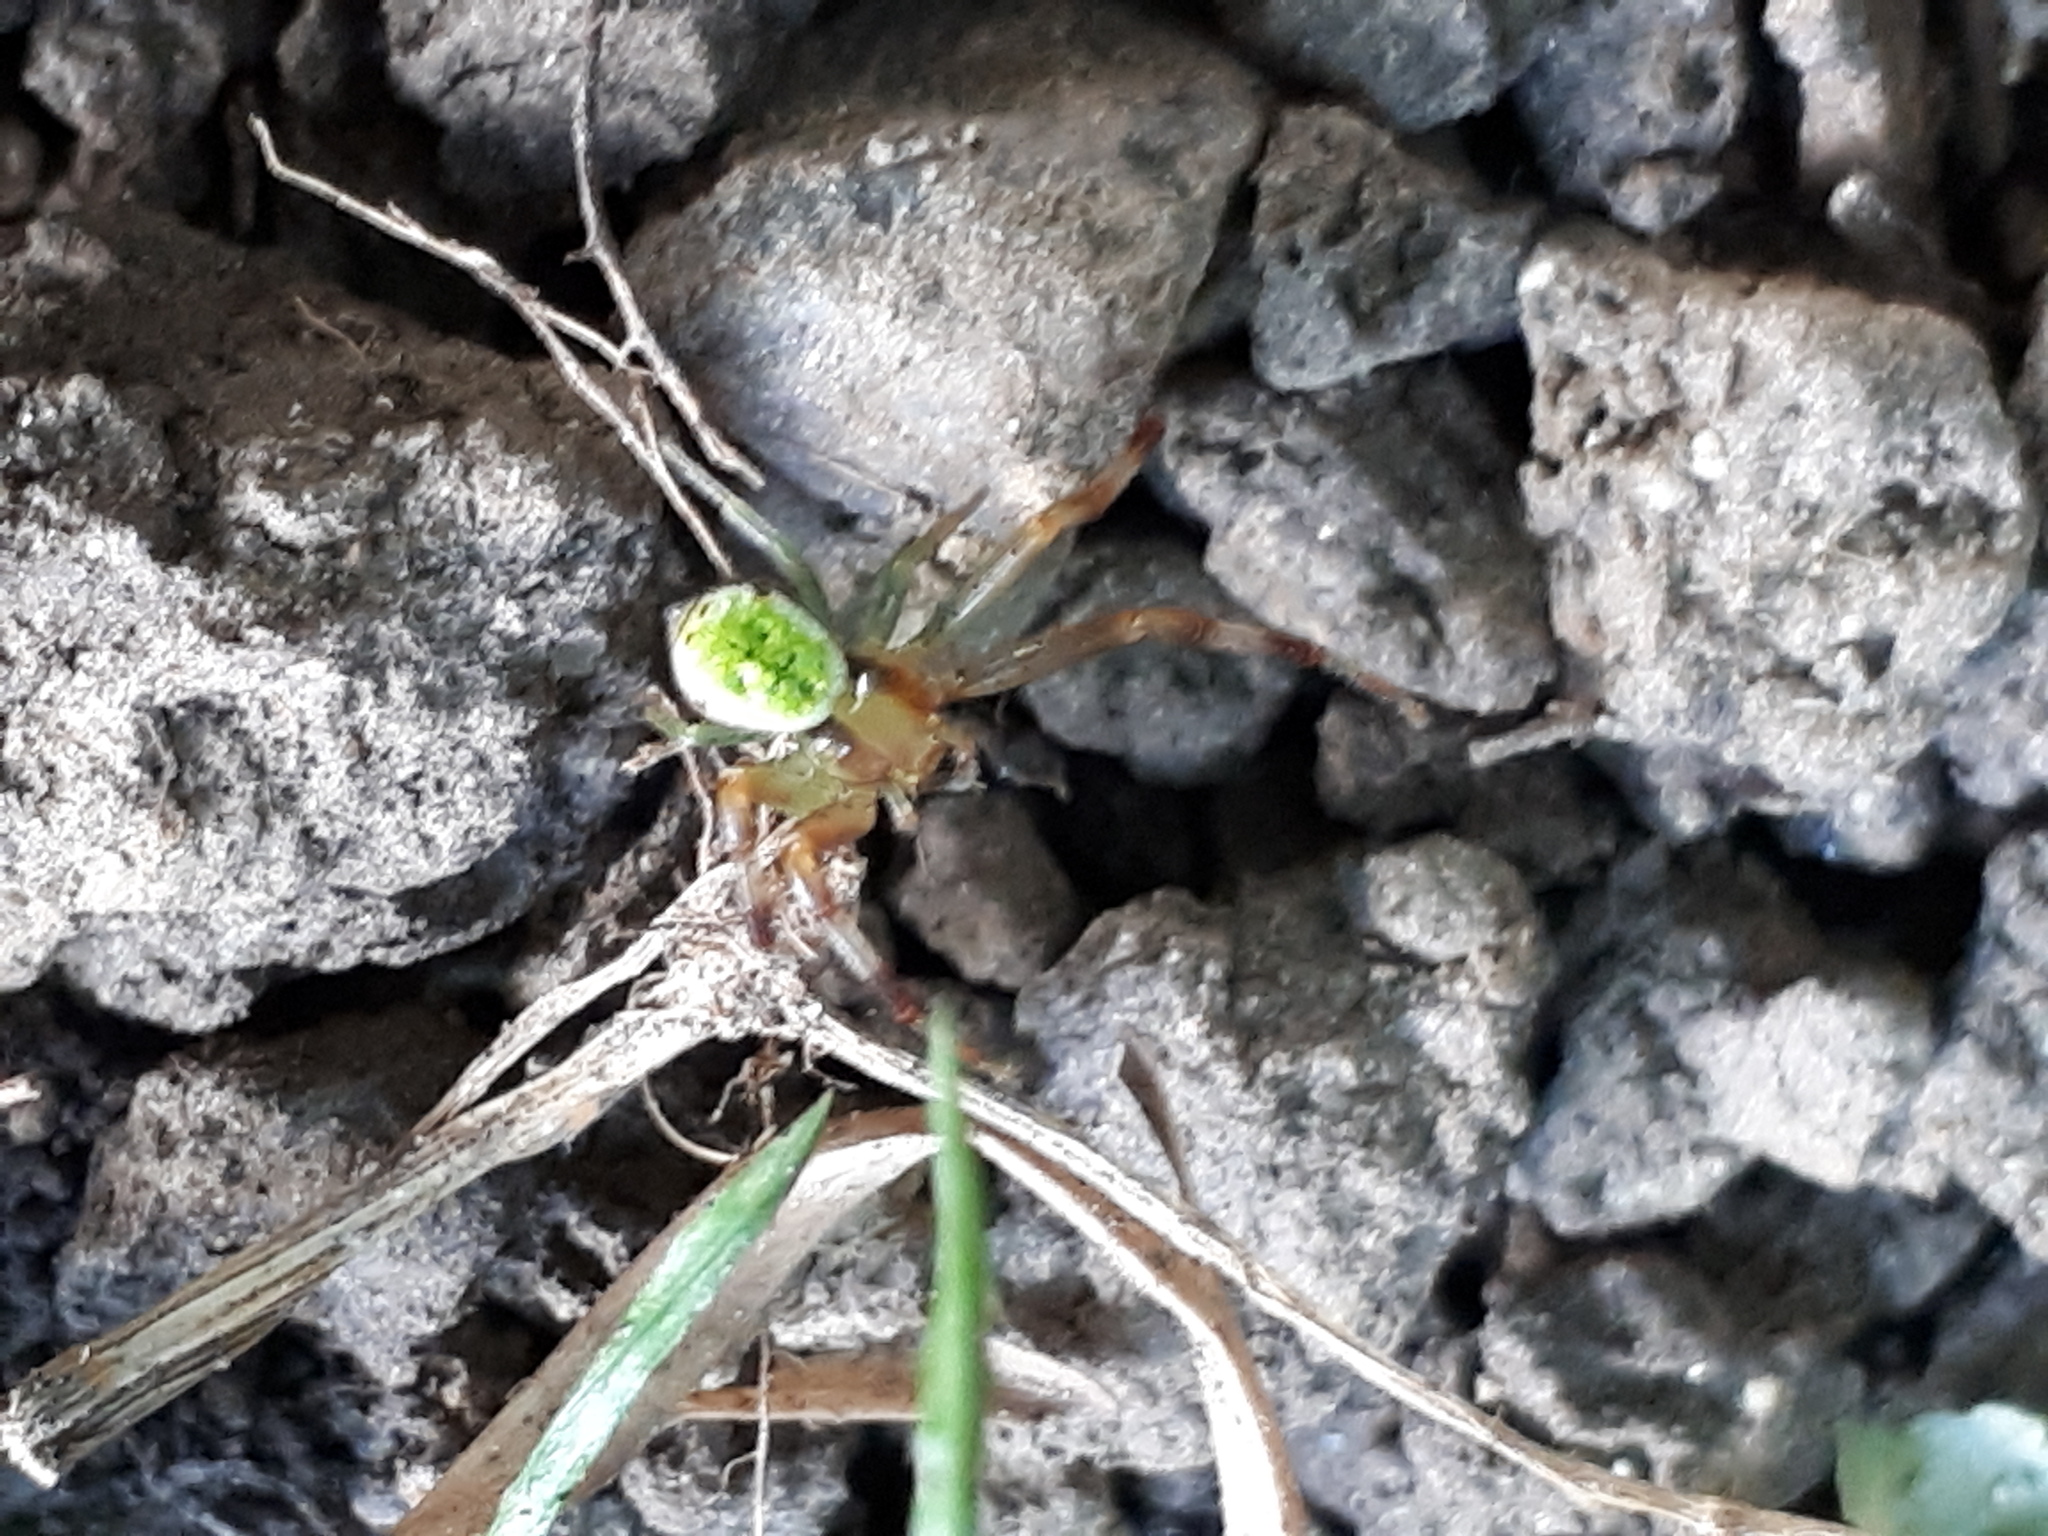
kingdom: Animalia
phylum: Arthropoda
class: Arachnida
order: Araneae
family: Thomisidae
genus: Ebrechtella
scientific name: Ebrechtella tricuspidata
